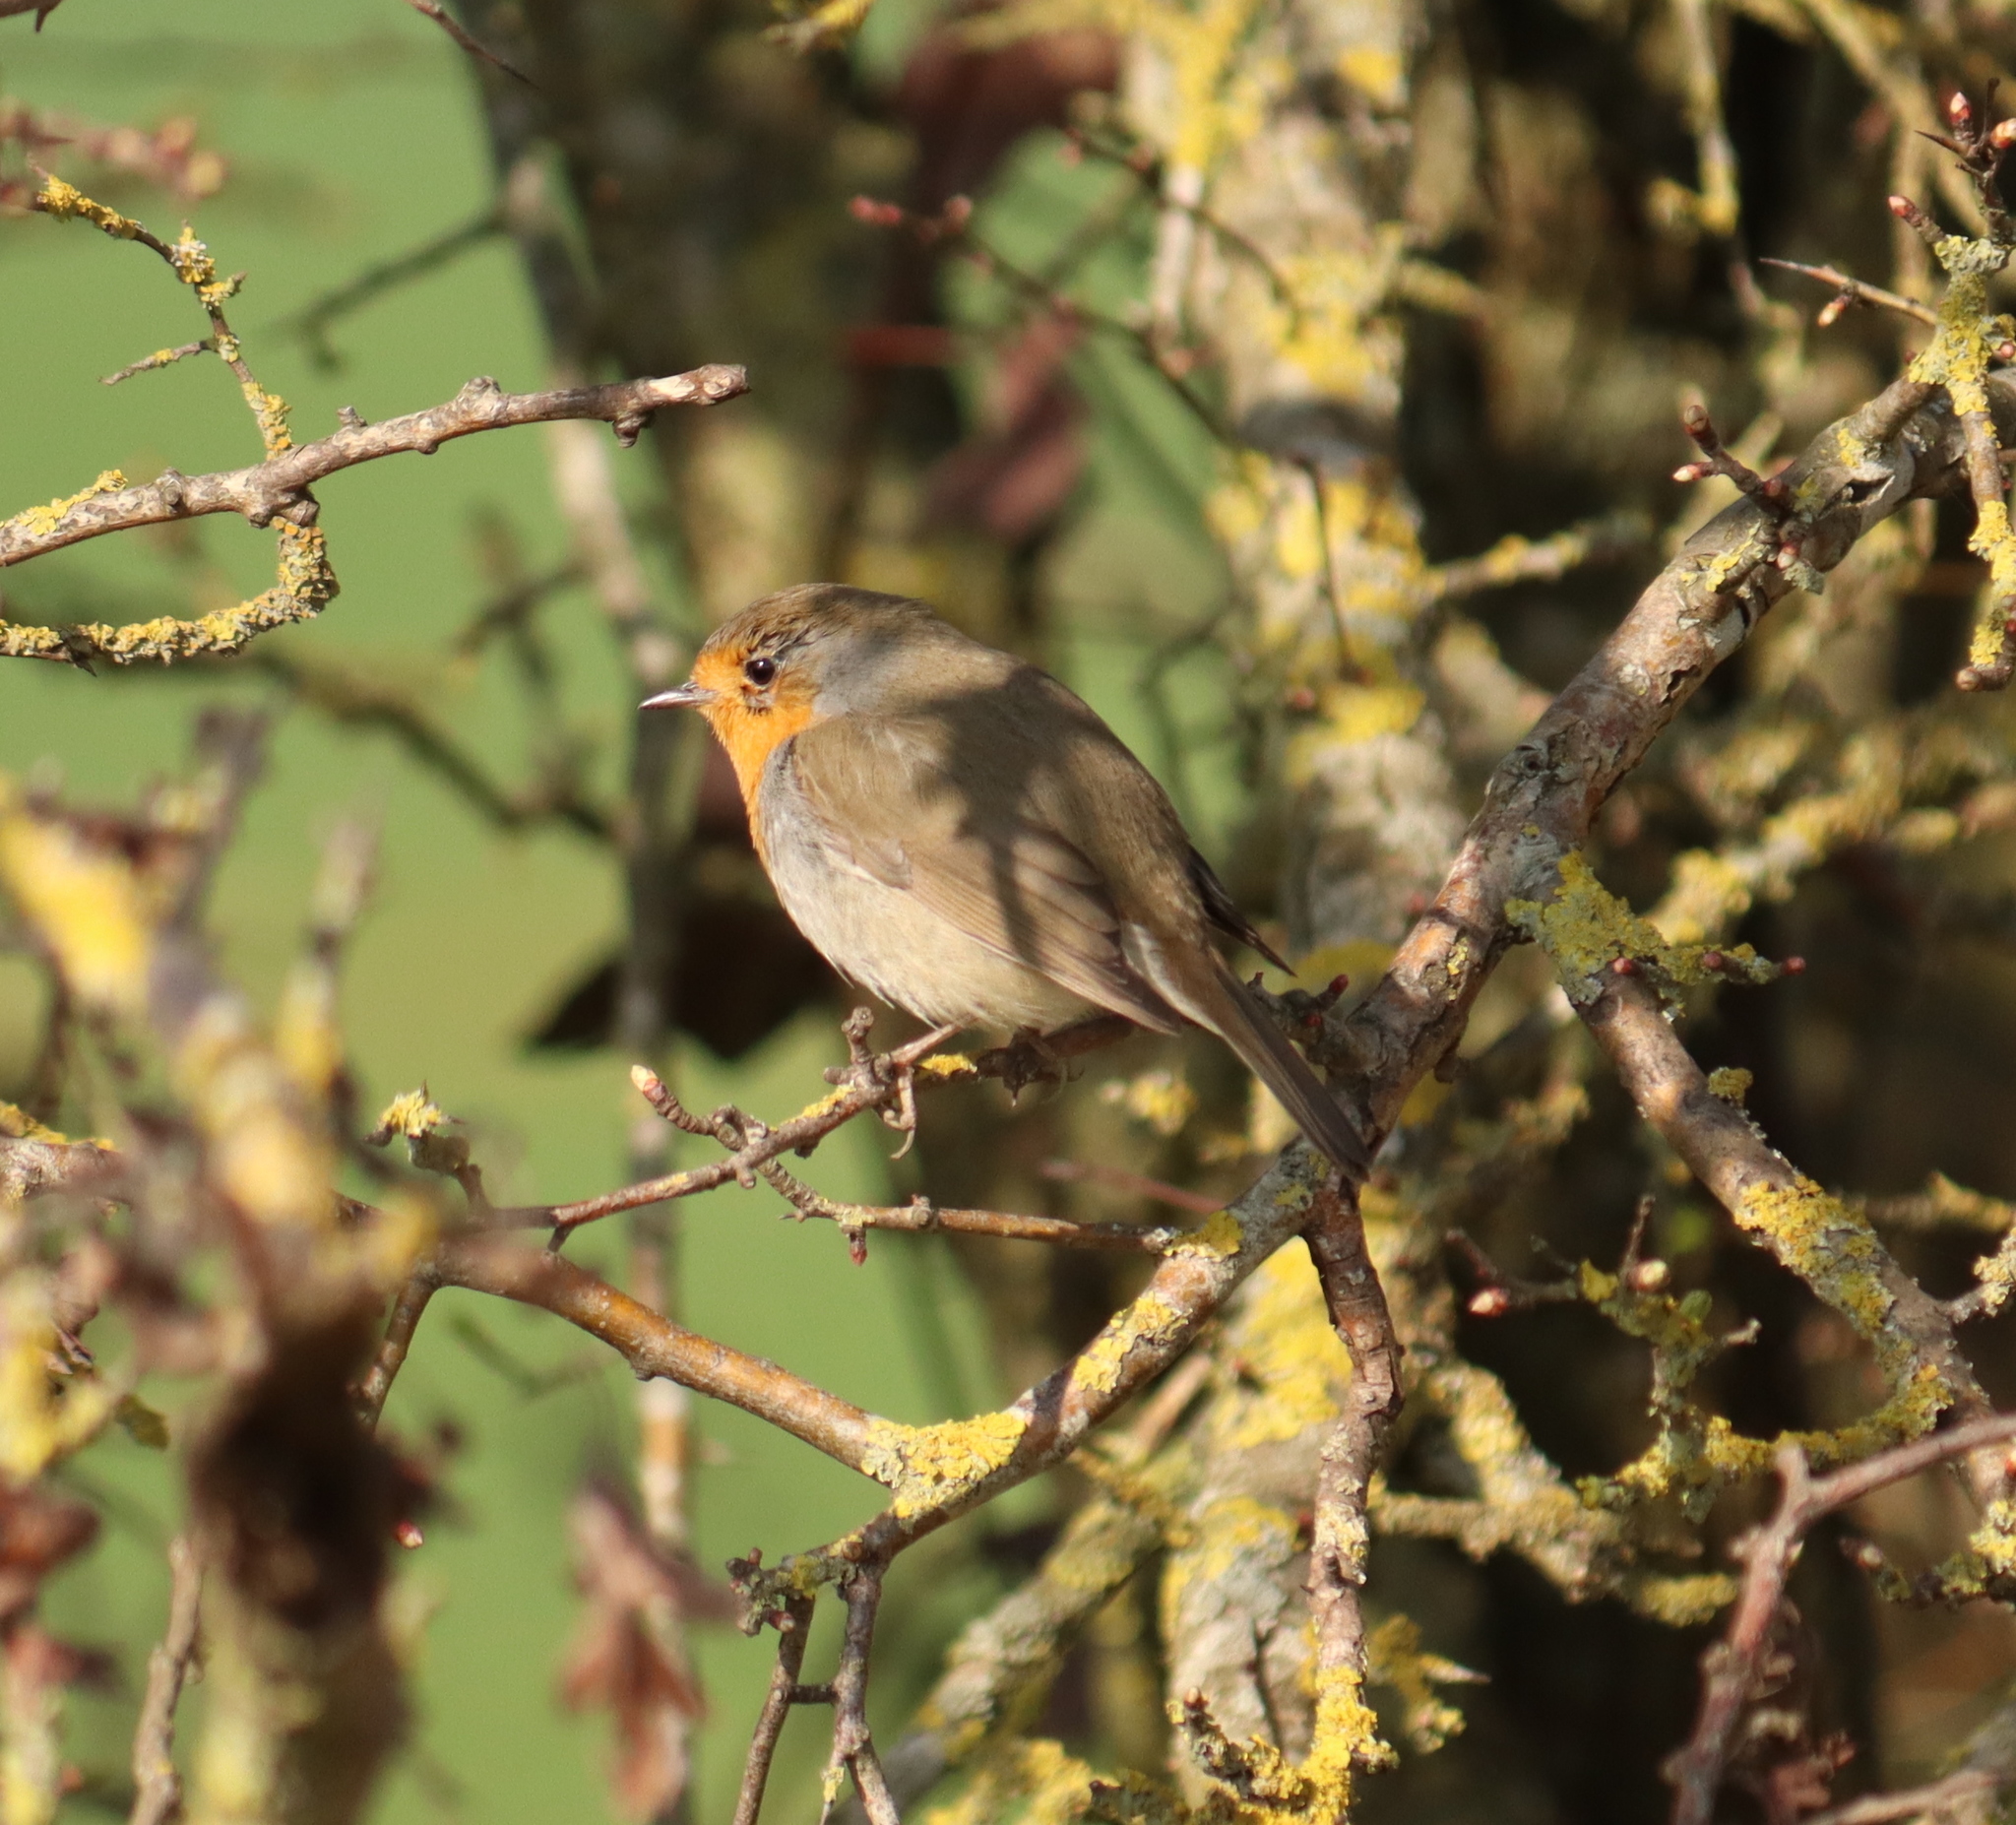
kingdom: Animalia
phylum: Chordata
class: Aves
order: Passeriformes
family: Muscicapidae
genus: Erithacus
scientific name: Erithacus rubecula
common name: European robin
